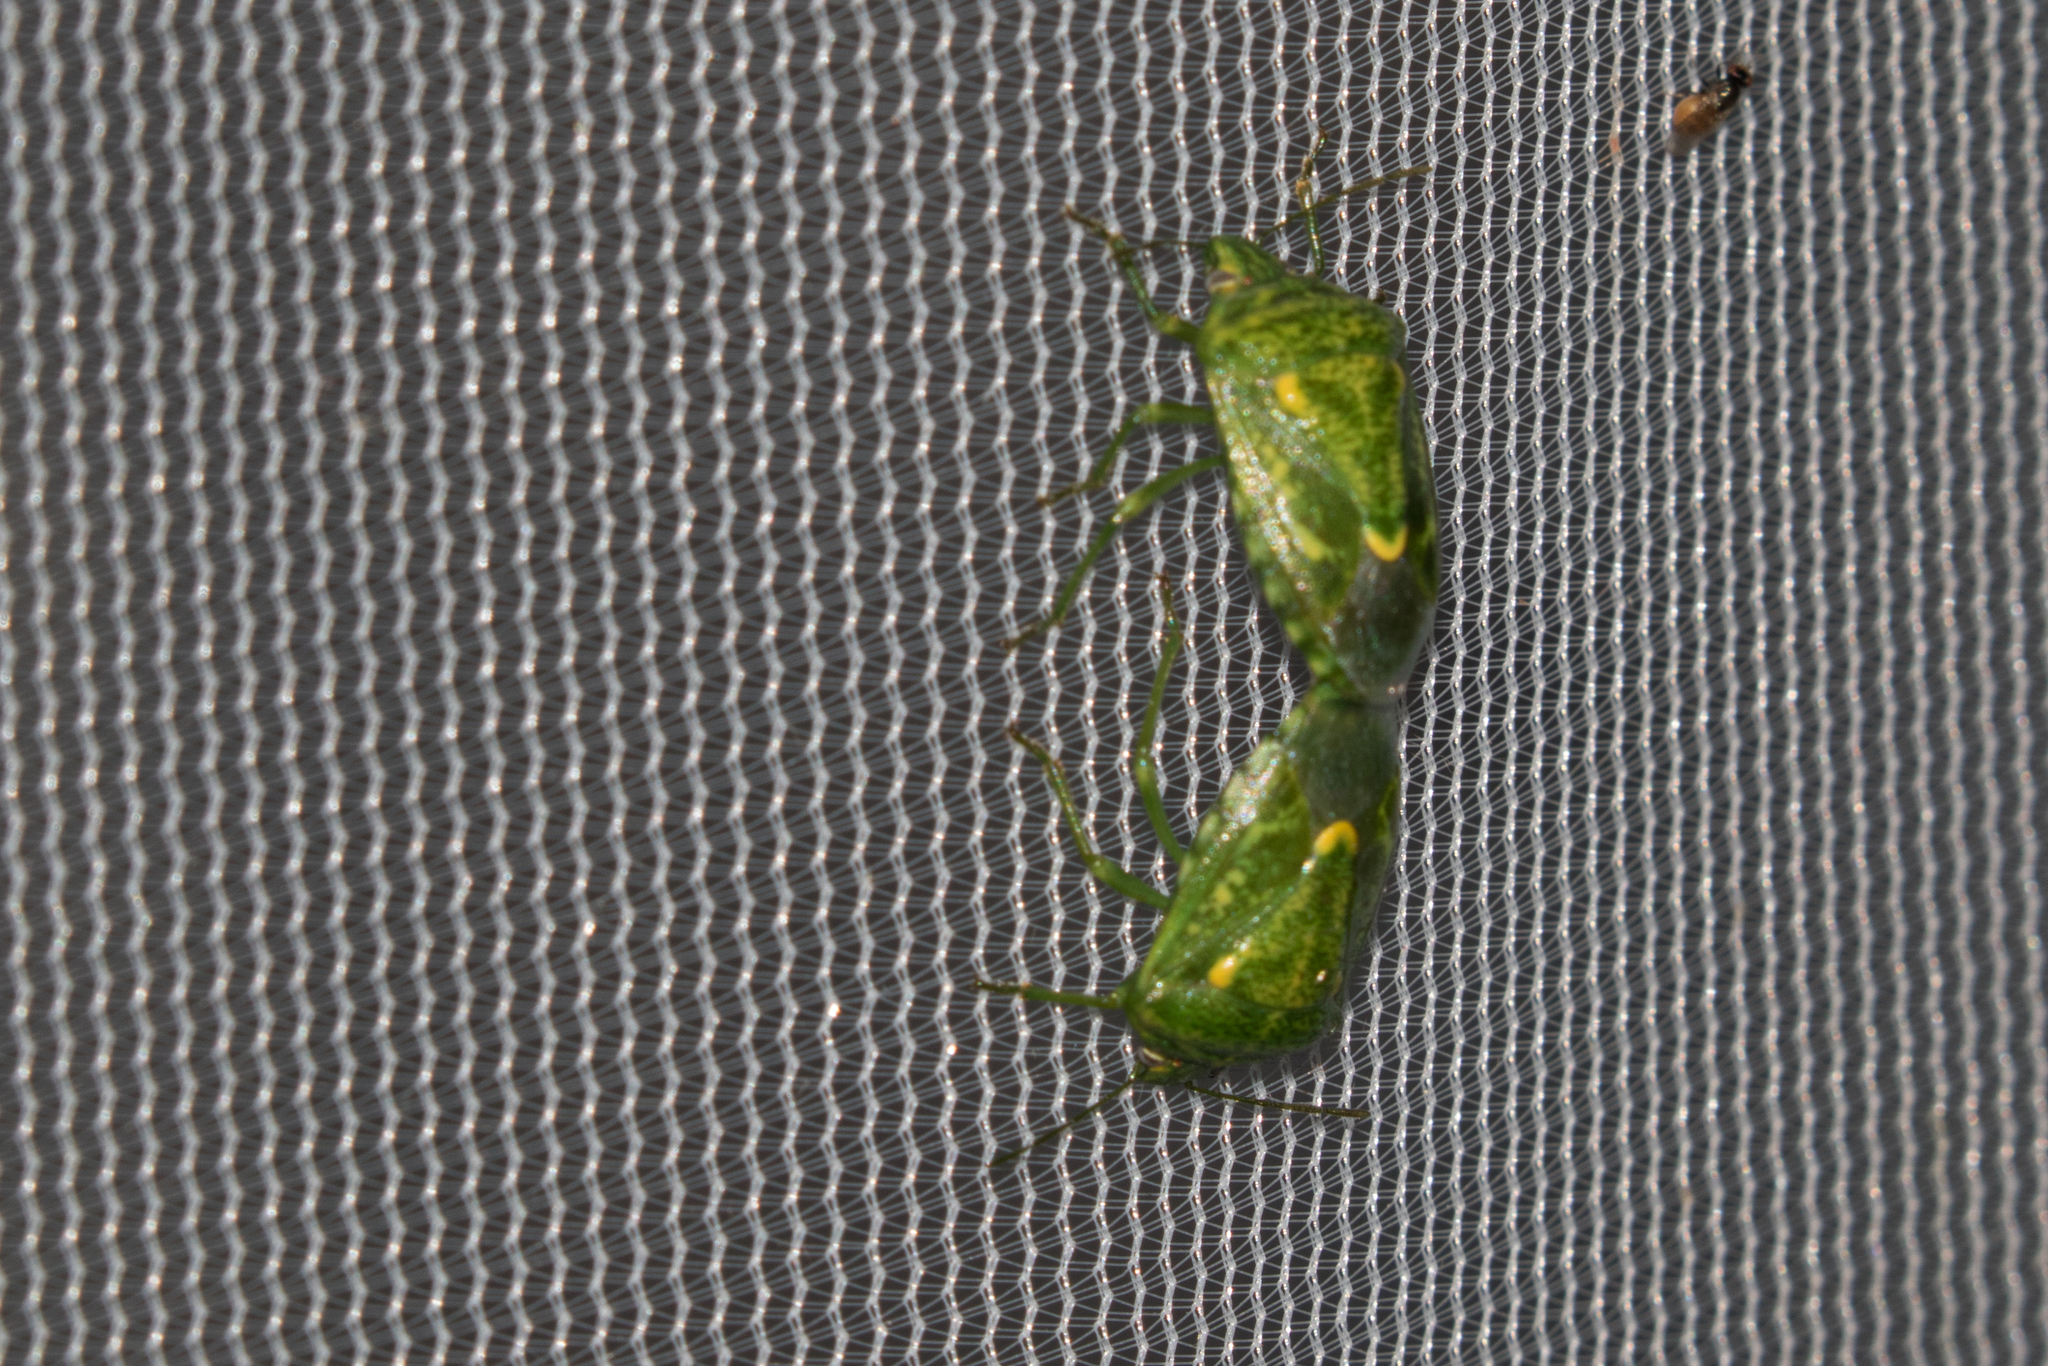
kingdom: Animalia
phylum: Arthropoda
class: Insecta
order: Hemiptera
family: Pentatomidae
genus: Banasa
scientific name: Banasa euchlora
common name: Cedar berry bug
